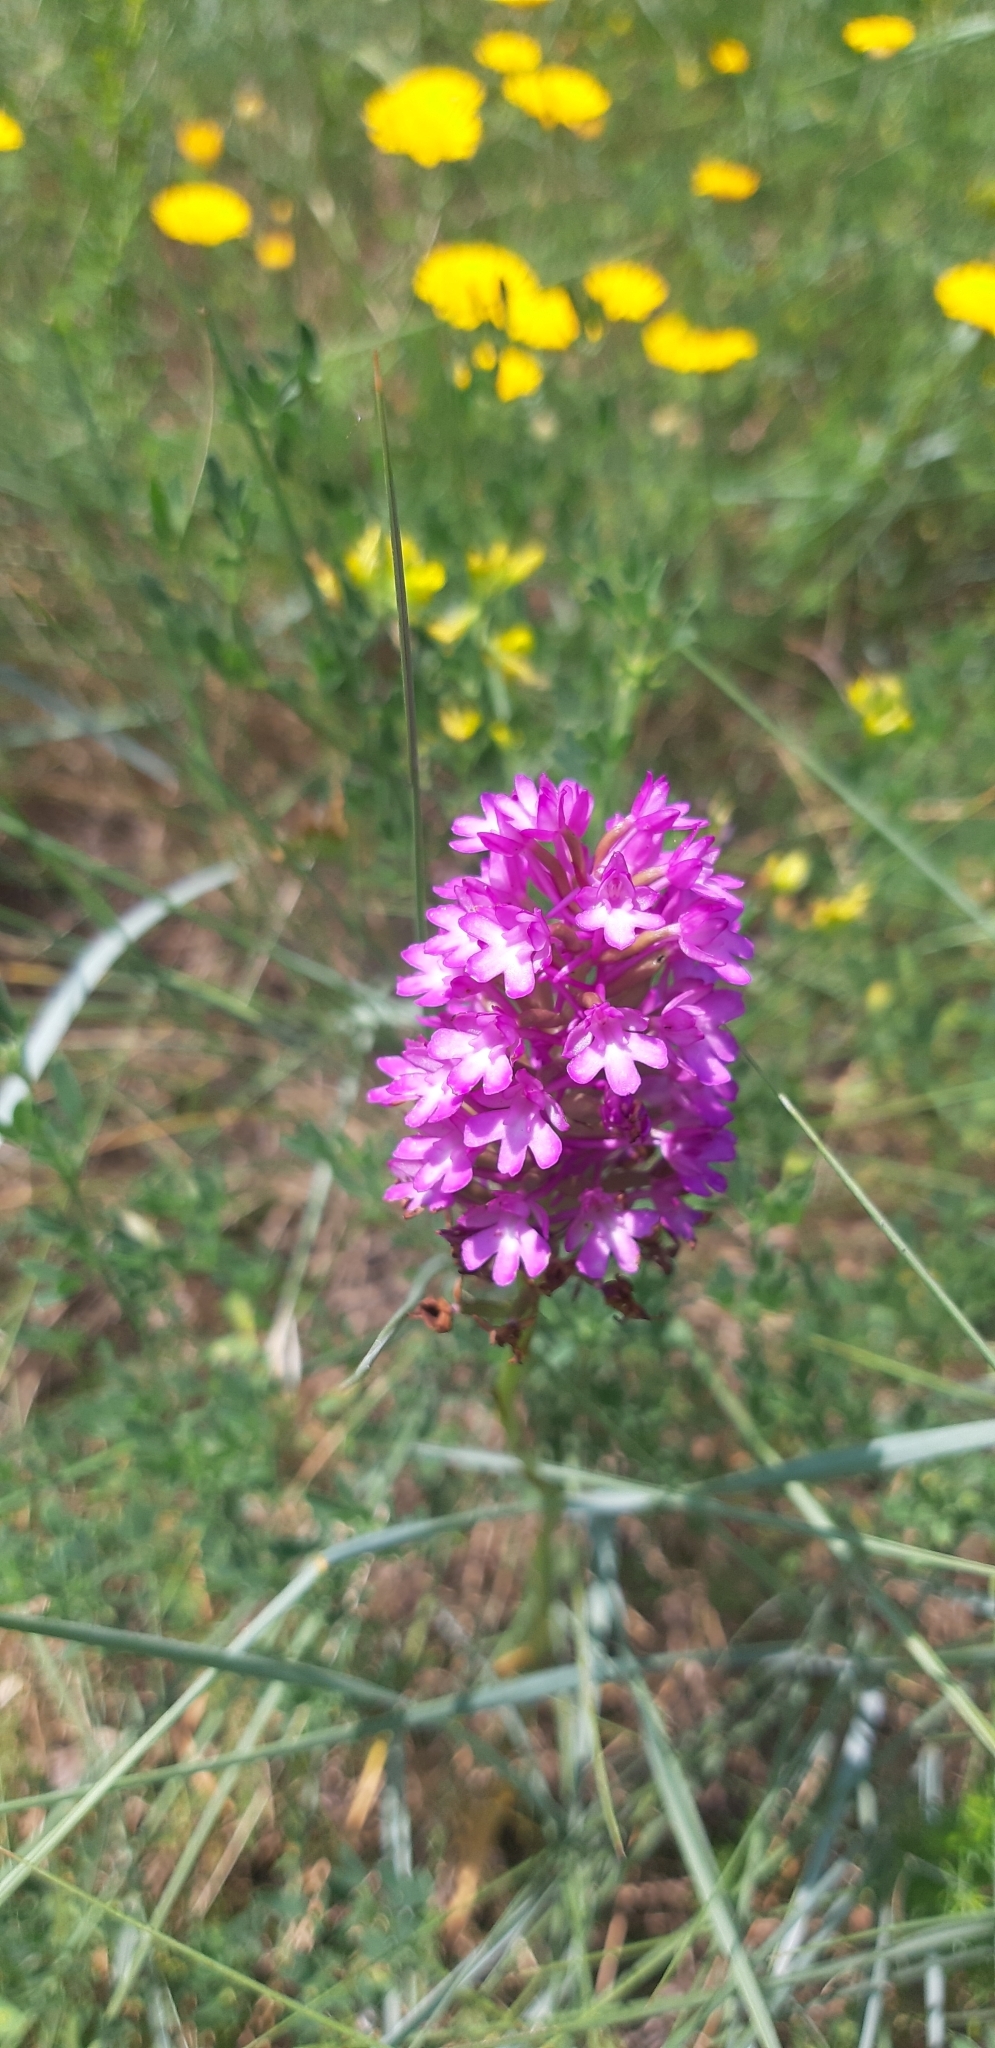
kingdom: Plantae
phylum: Tracheophyta
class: Liliopsida
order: Asparagales
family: Orchidaceae
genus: Anacamptis
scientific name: Anacamptis pyramidalis
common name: Pyramidal orchid
